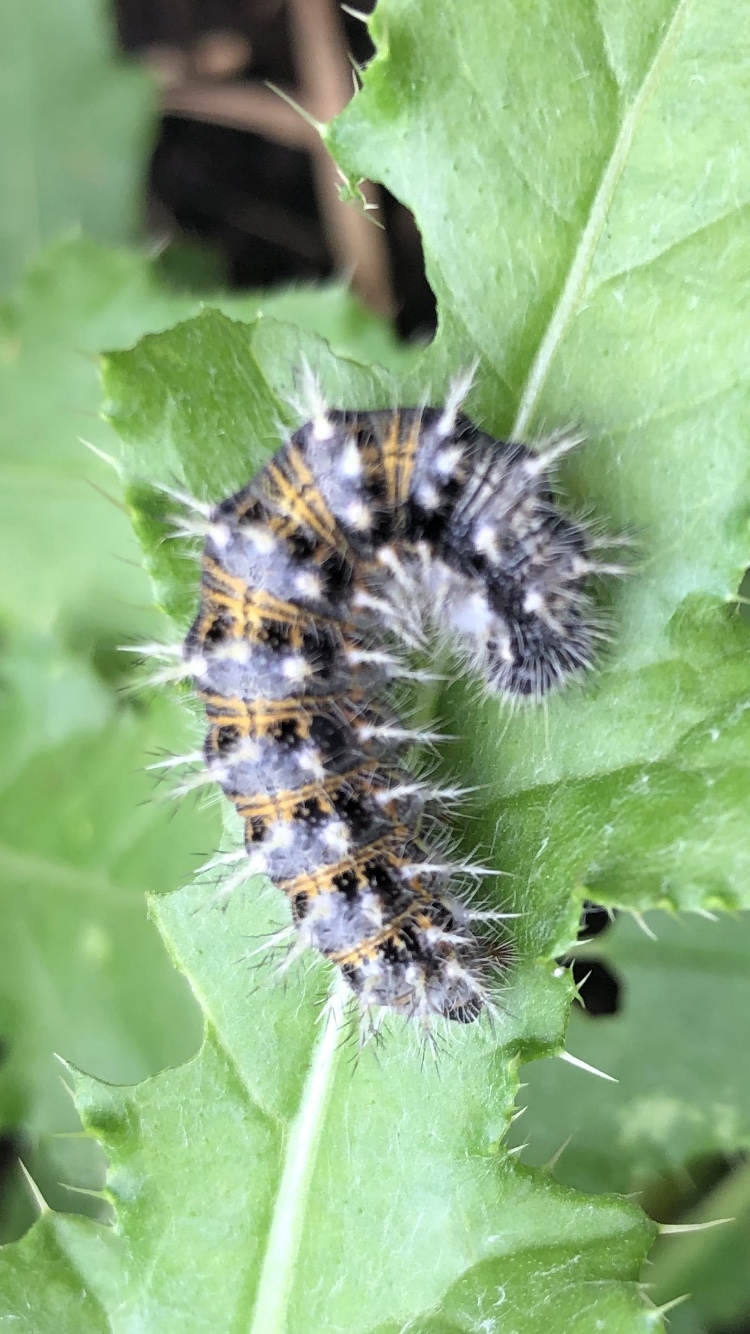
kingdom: Animalia
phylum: Arthropoda
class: Insecta
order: Lepidoptera
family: Nymphalidae
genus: Vanessa
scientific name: Vanessa cardui
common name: Painted lady
